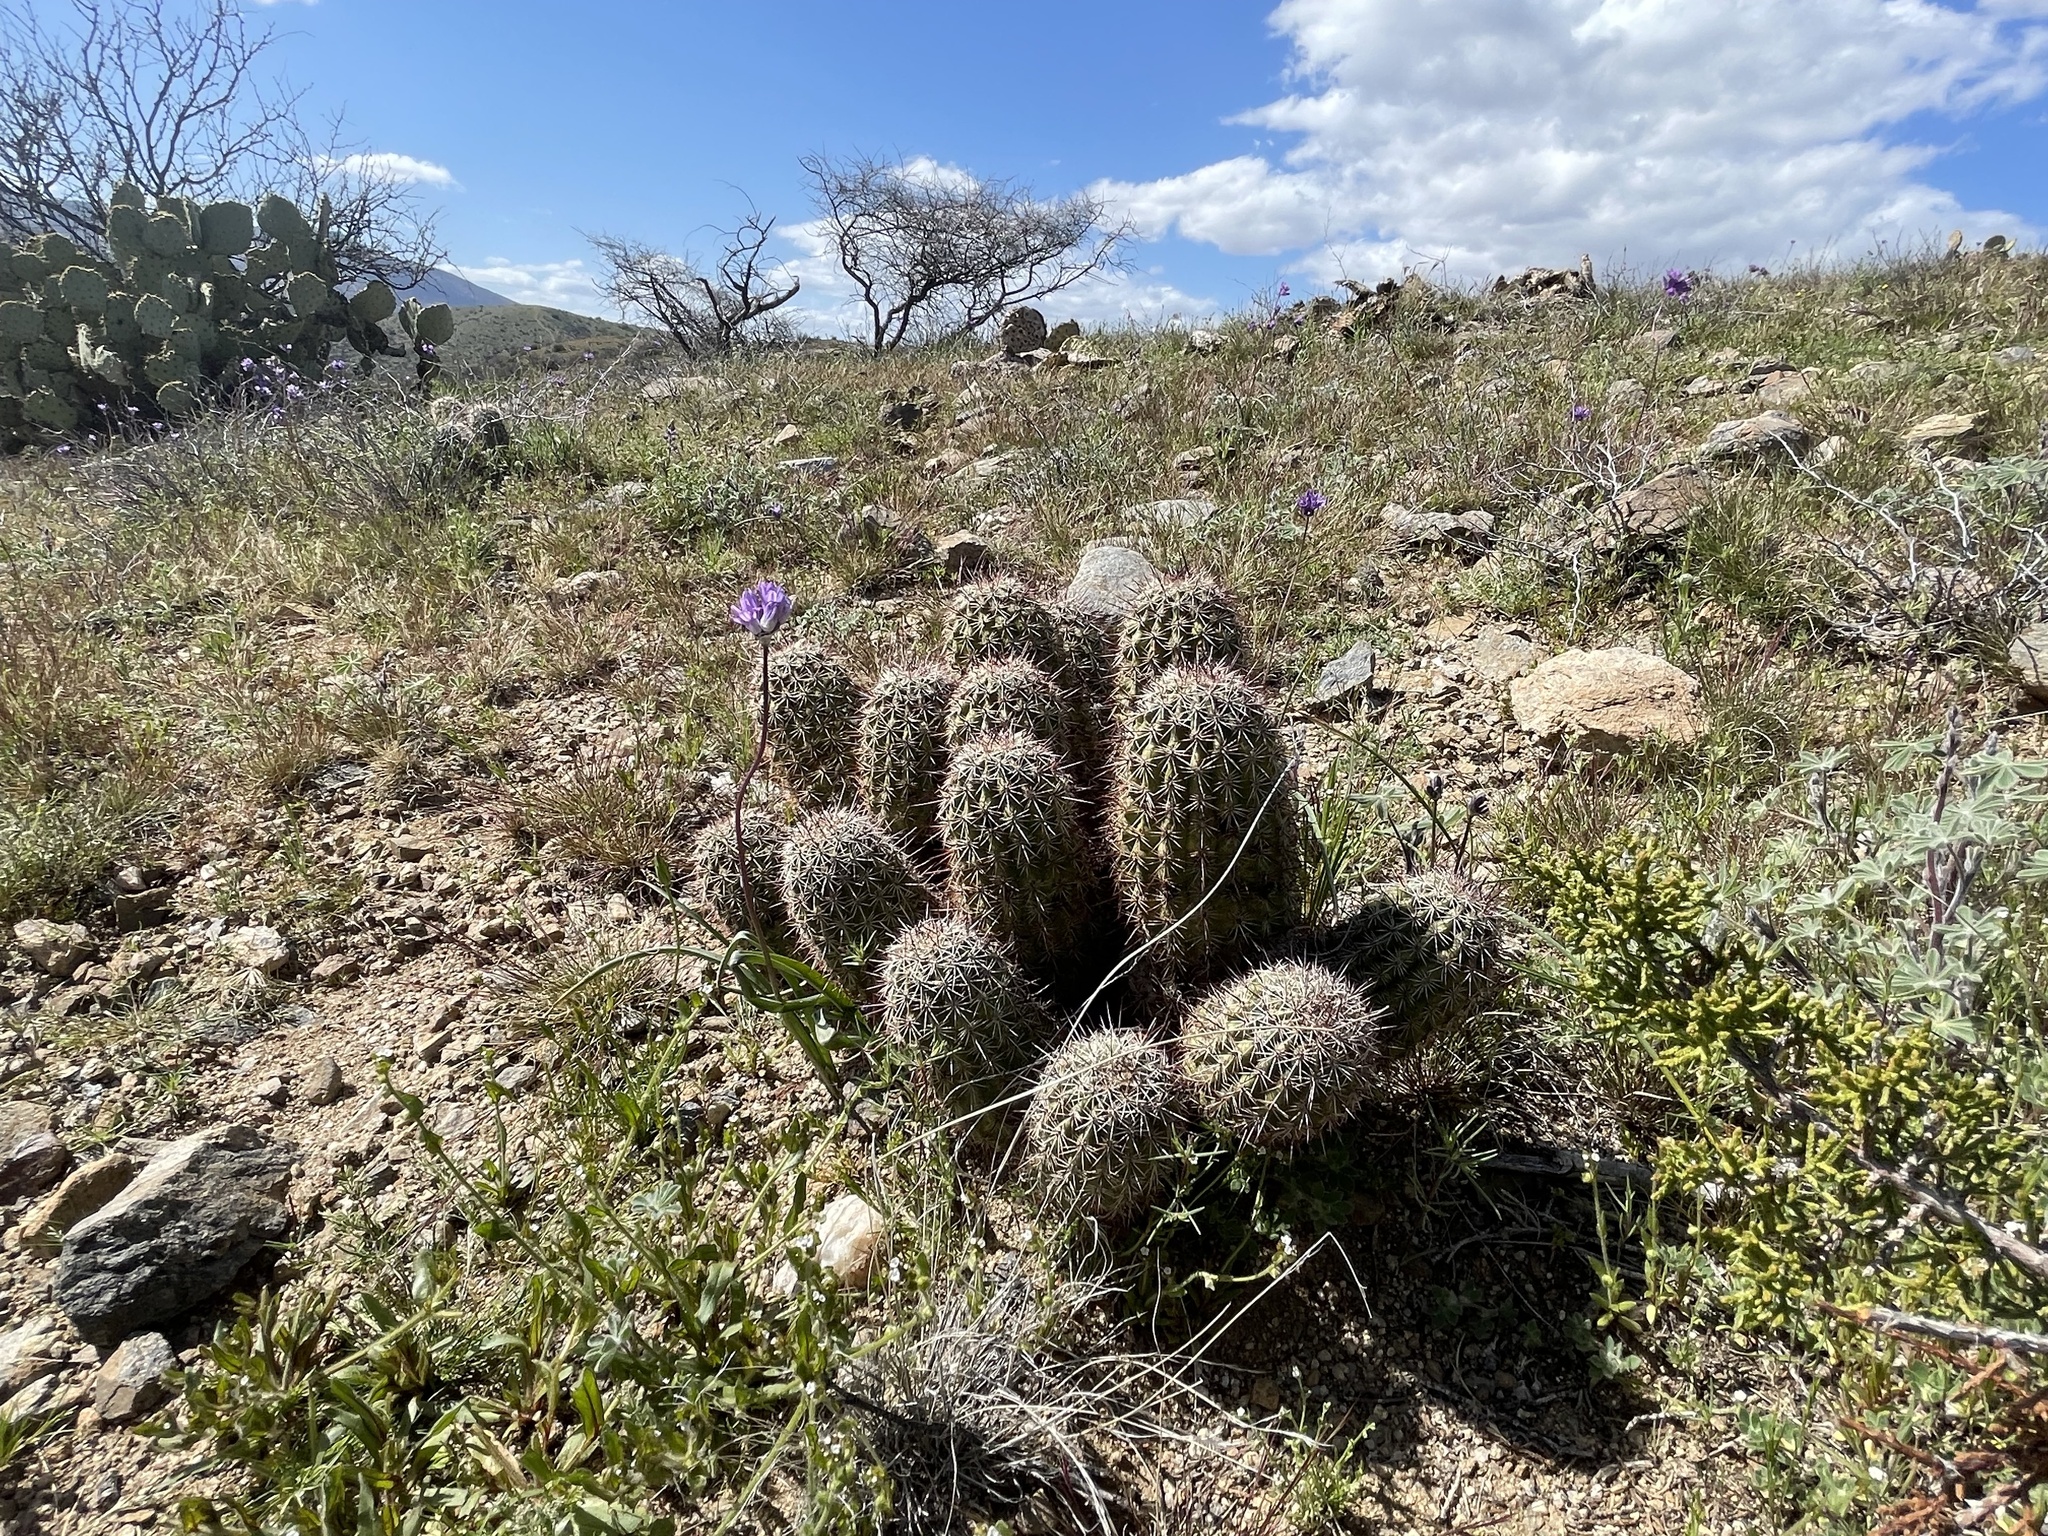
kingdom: Plantae
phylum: Tracheophyta
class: Magnoliopsida
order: Caryophyllales
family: Cactaceae
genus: Echinocereus
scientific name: Echinocereus bonkerae
